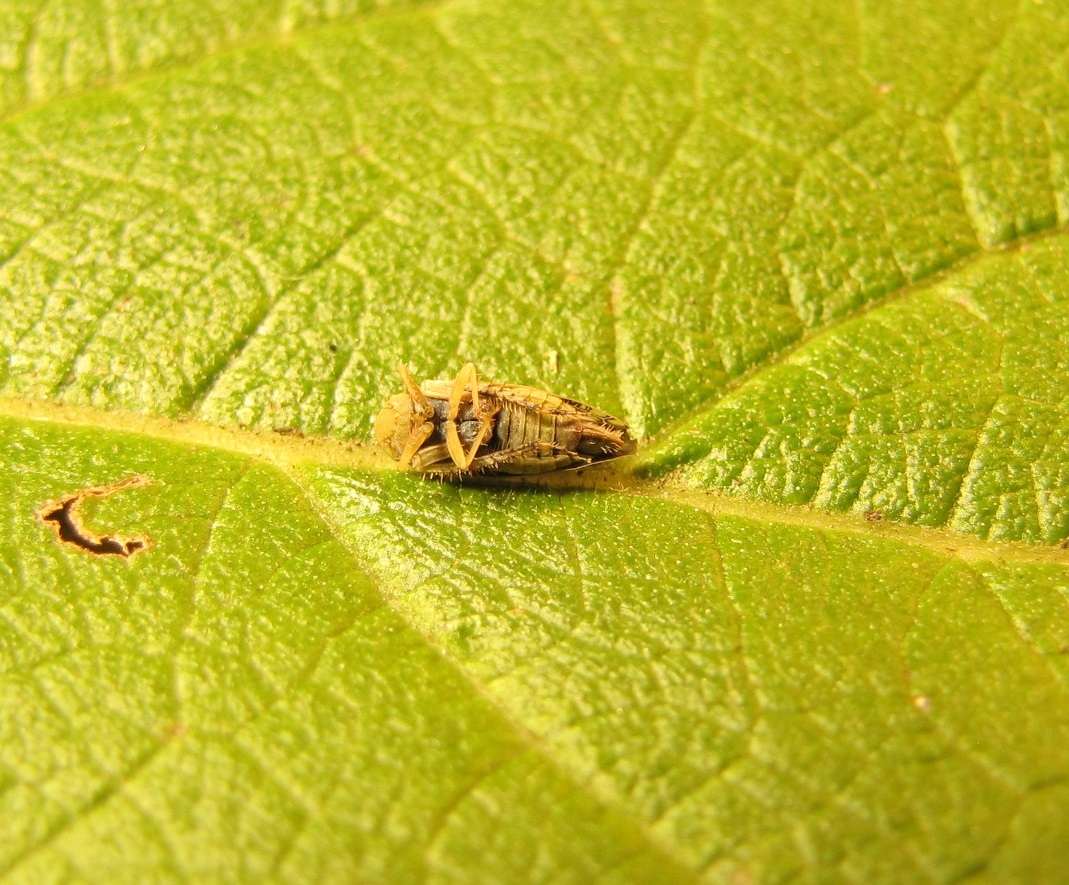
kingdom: Animalia
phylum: Arthropoda
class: Insecta
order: Hemiptera
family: Cicadellidae
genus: Acinopterus
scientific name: Acinopterus acuminatus
